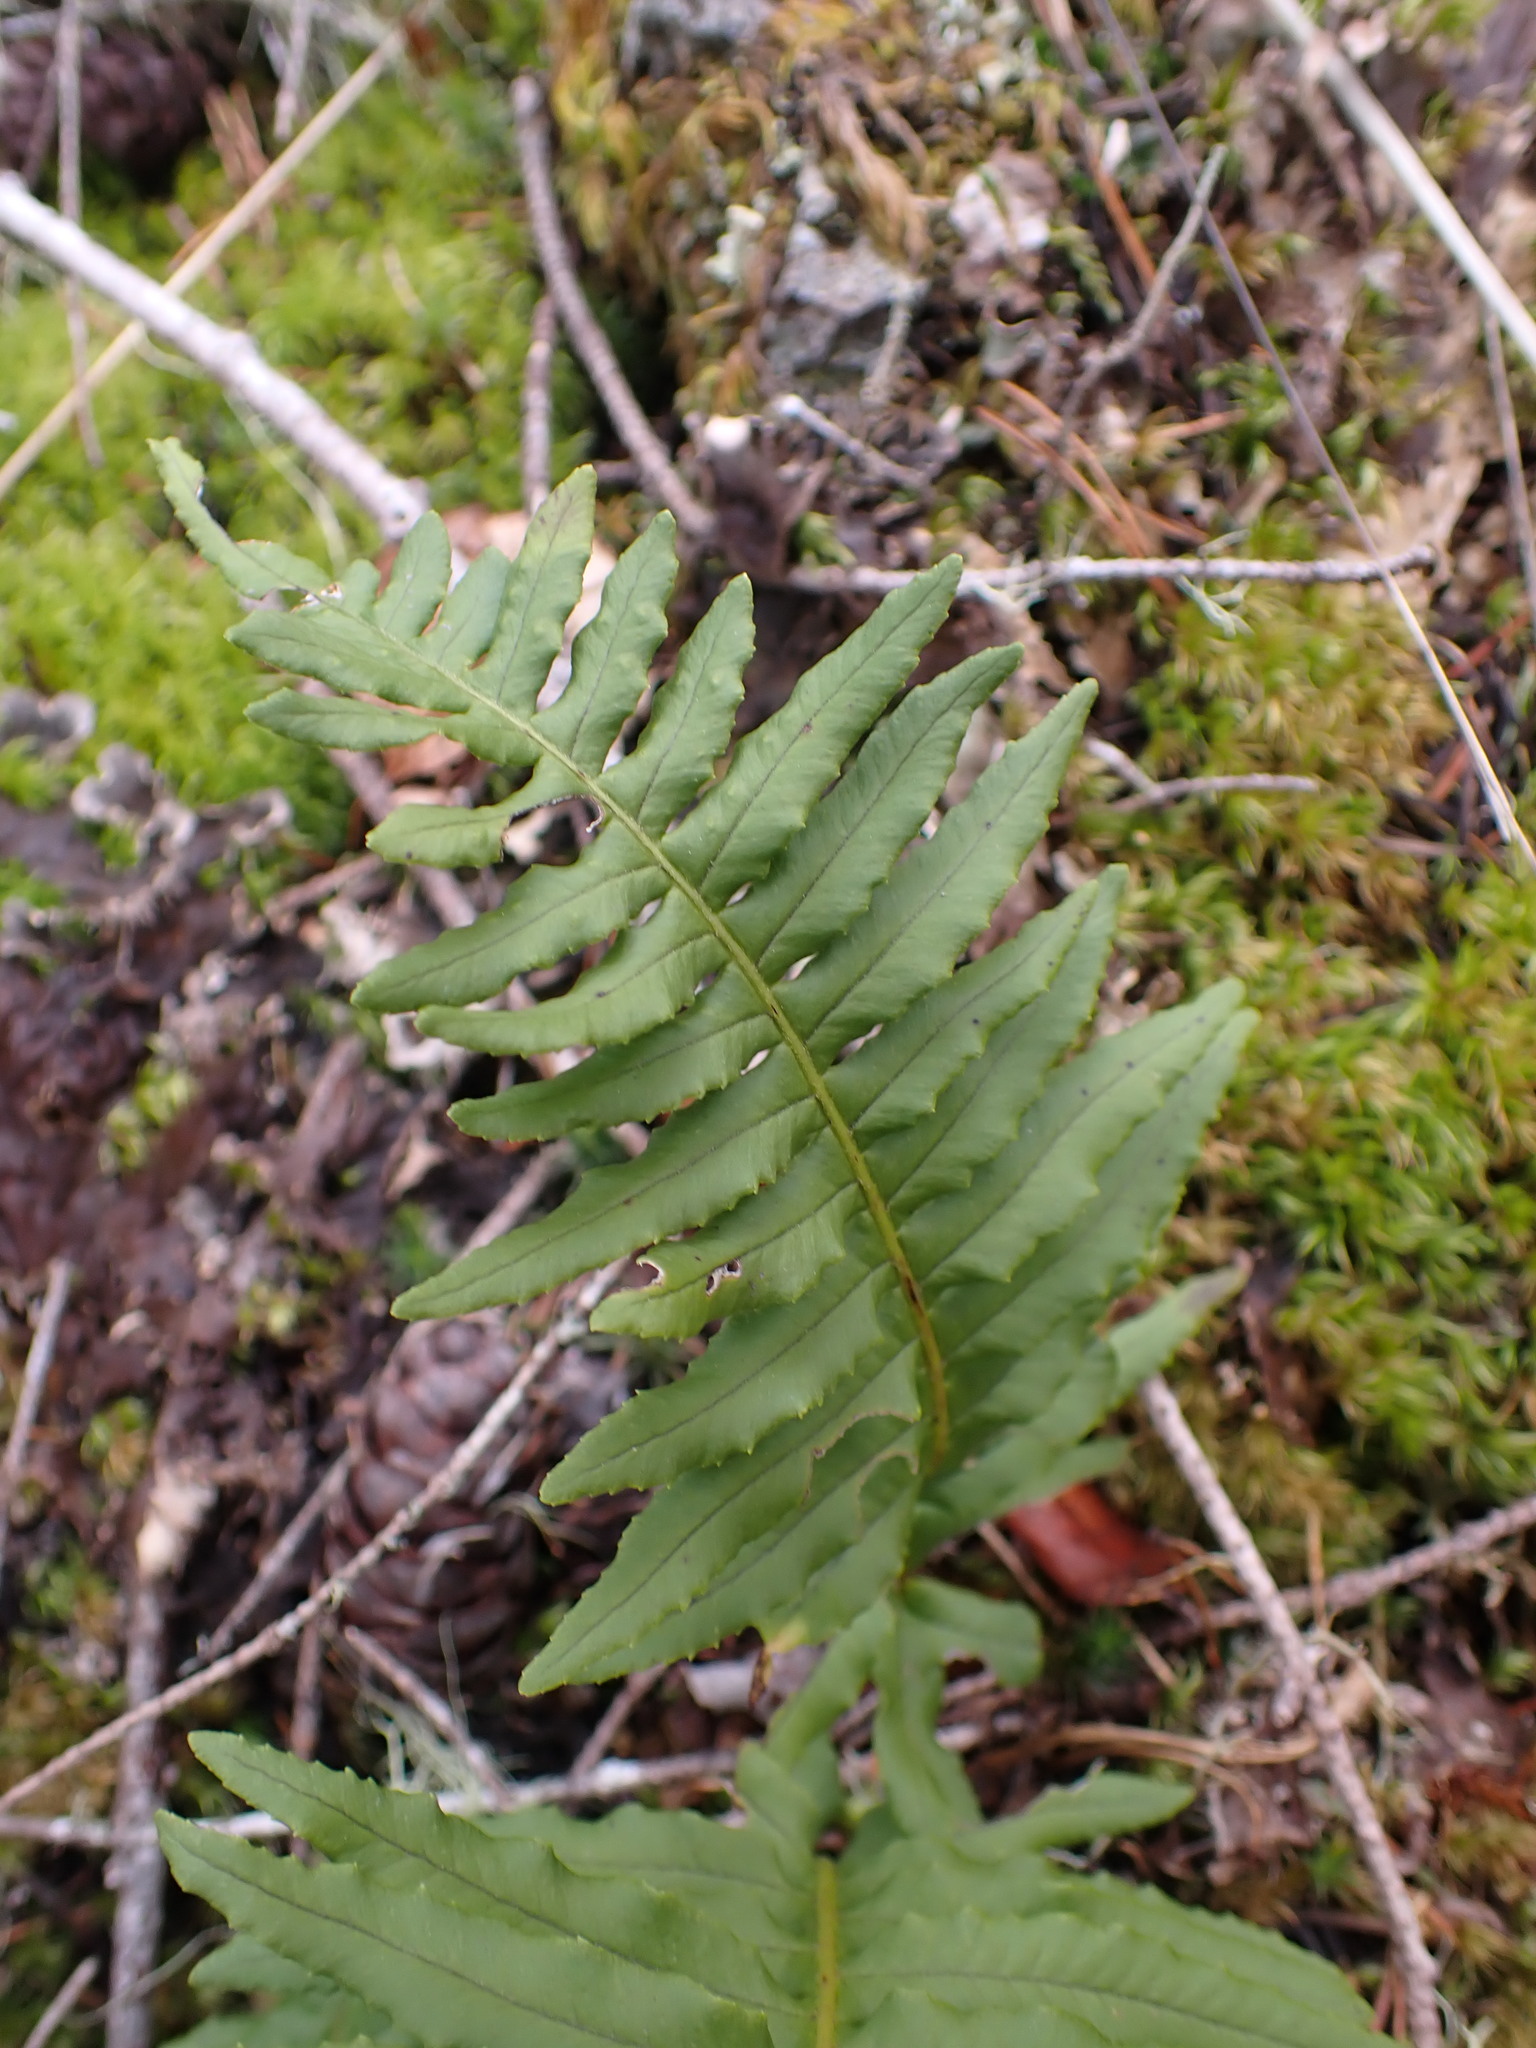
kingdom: Plantae
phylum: Tracheophyta
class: Polypodiopsida
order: Polypodiales
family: Polypodiaceae
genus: Polypodium
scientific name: Polypodium glycyrrhiza
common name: Licorice fern
